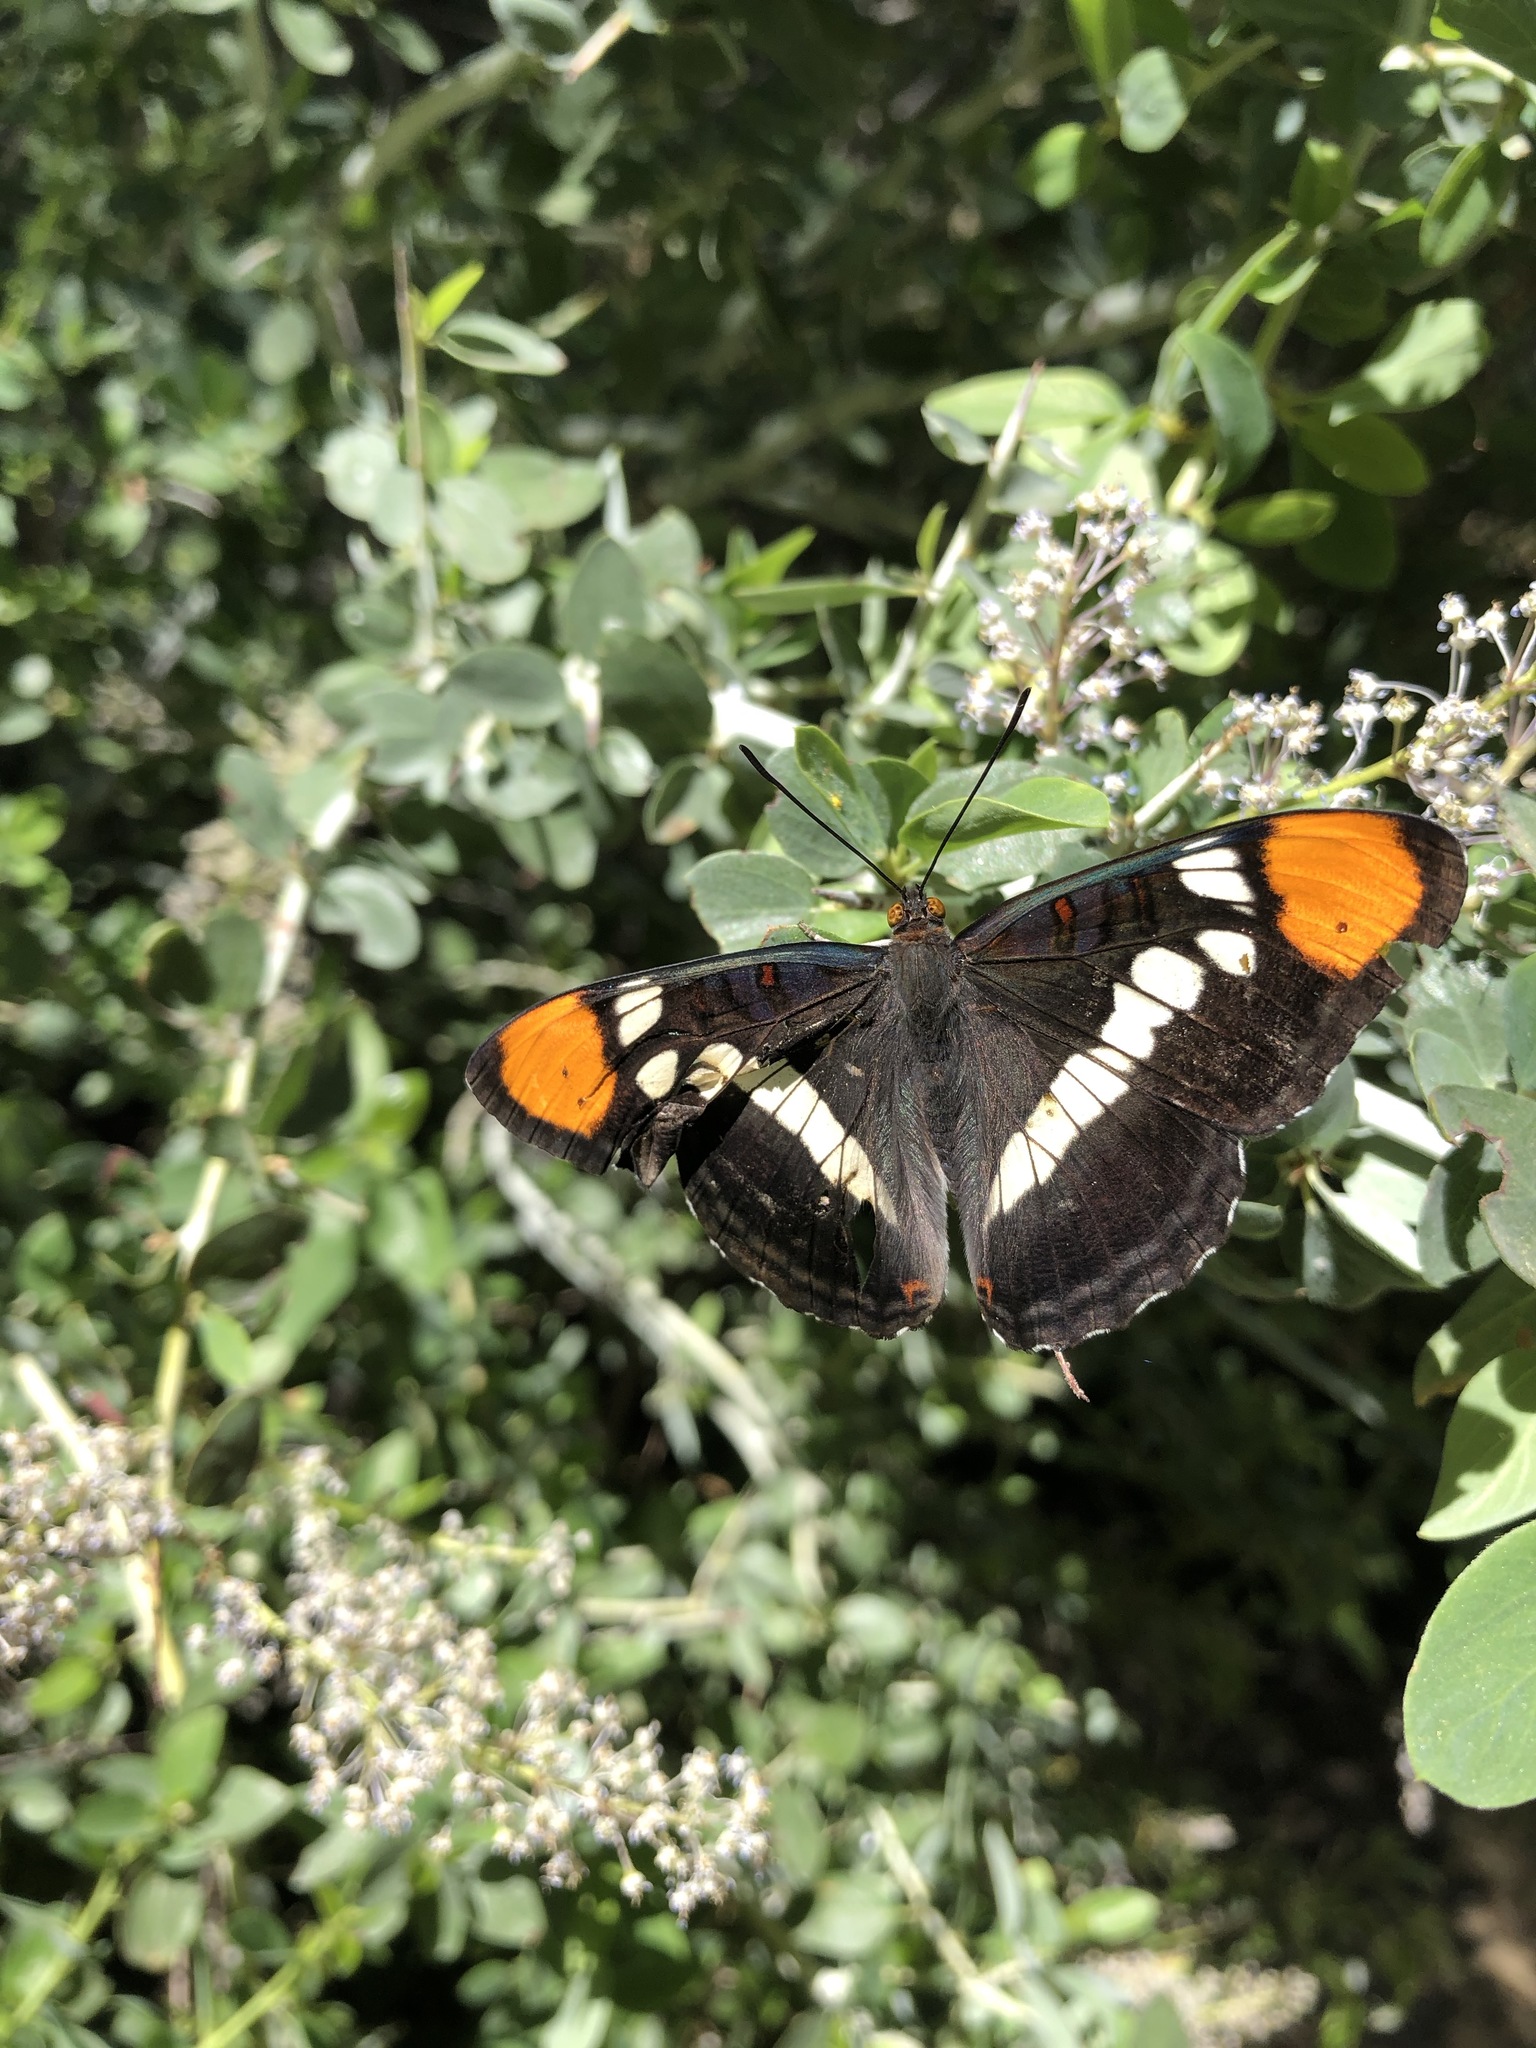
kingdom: Animalia
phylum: Arthropoda
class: Insecta
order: Lepidoptera
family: Nymphalidae
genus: Limenitis
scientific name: Limenitis bredowii
